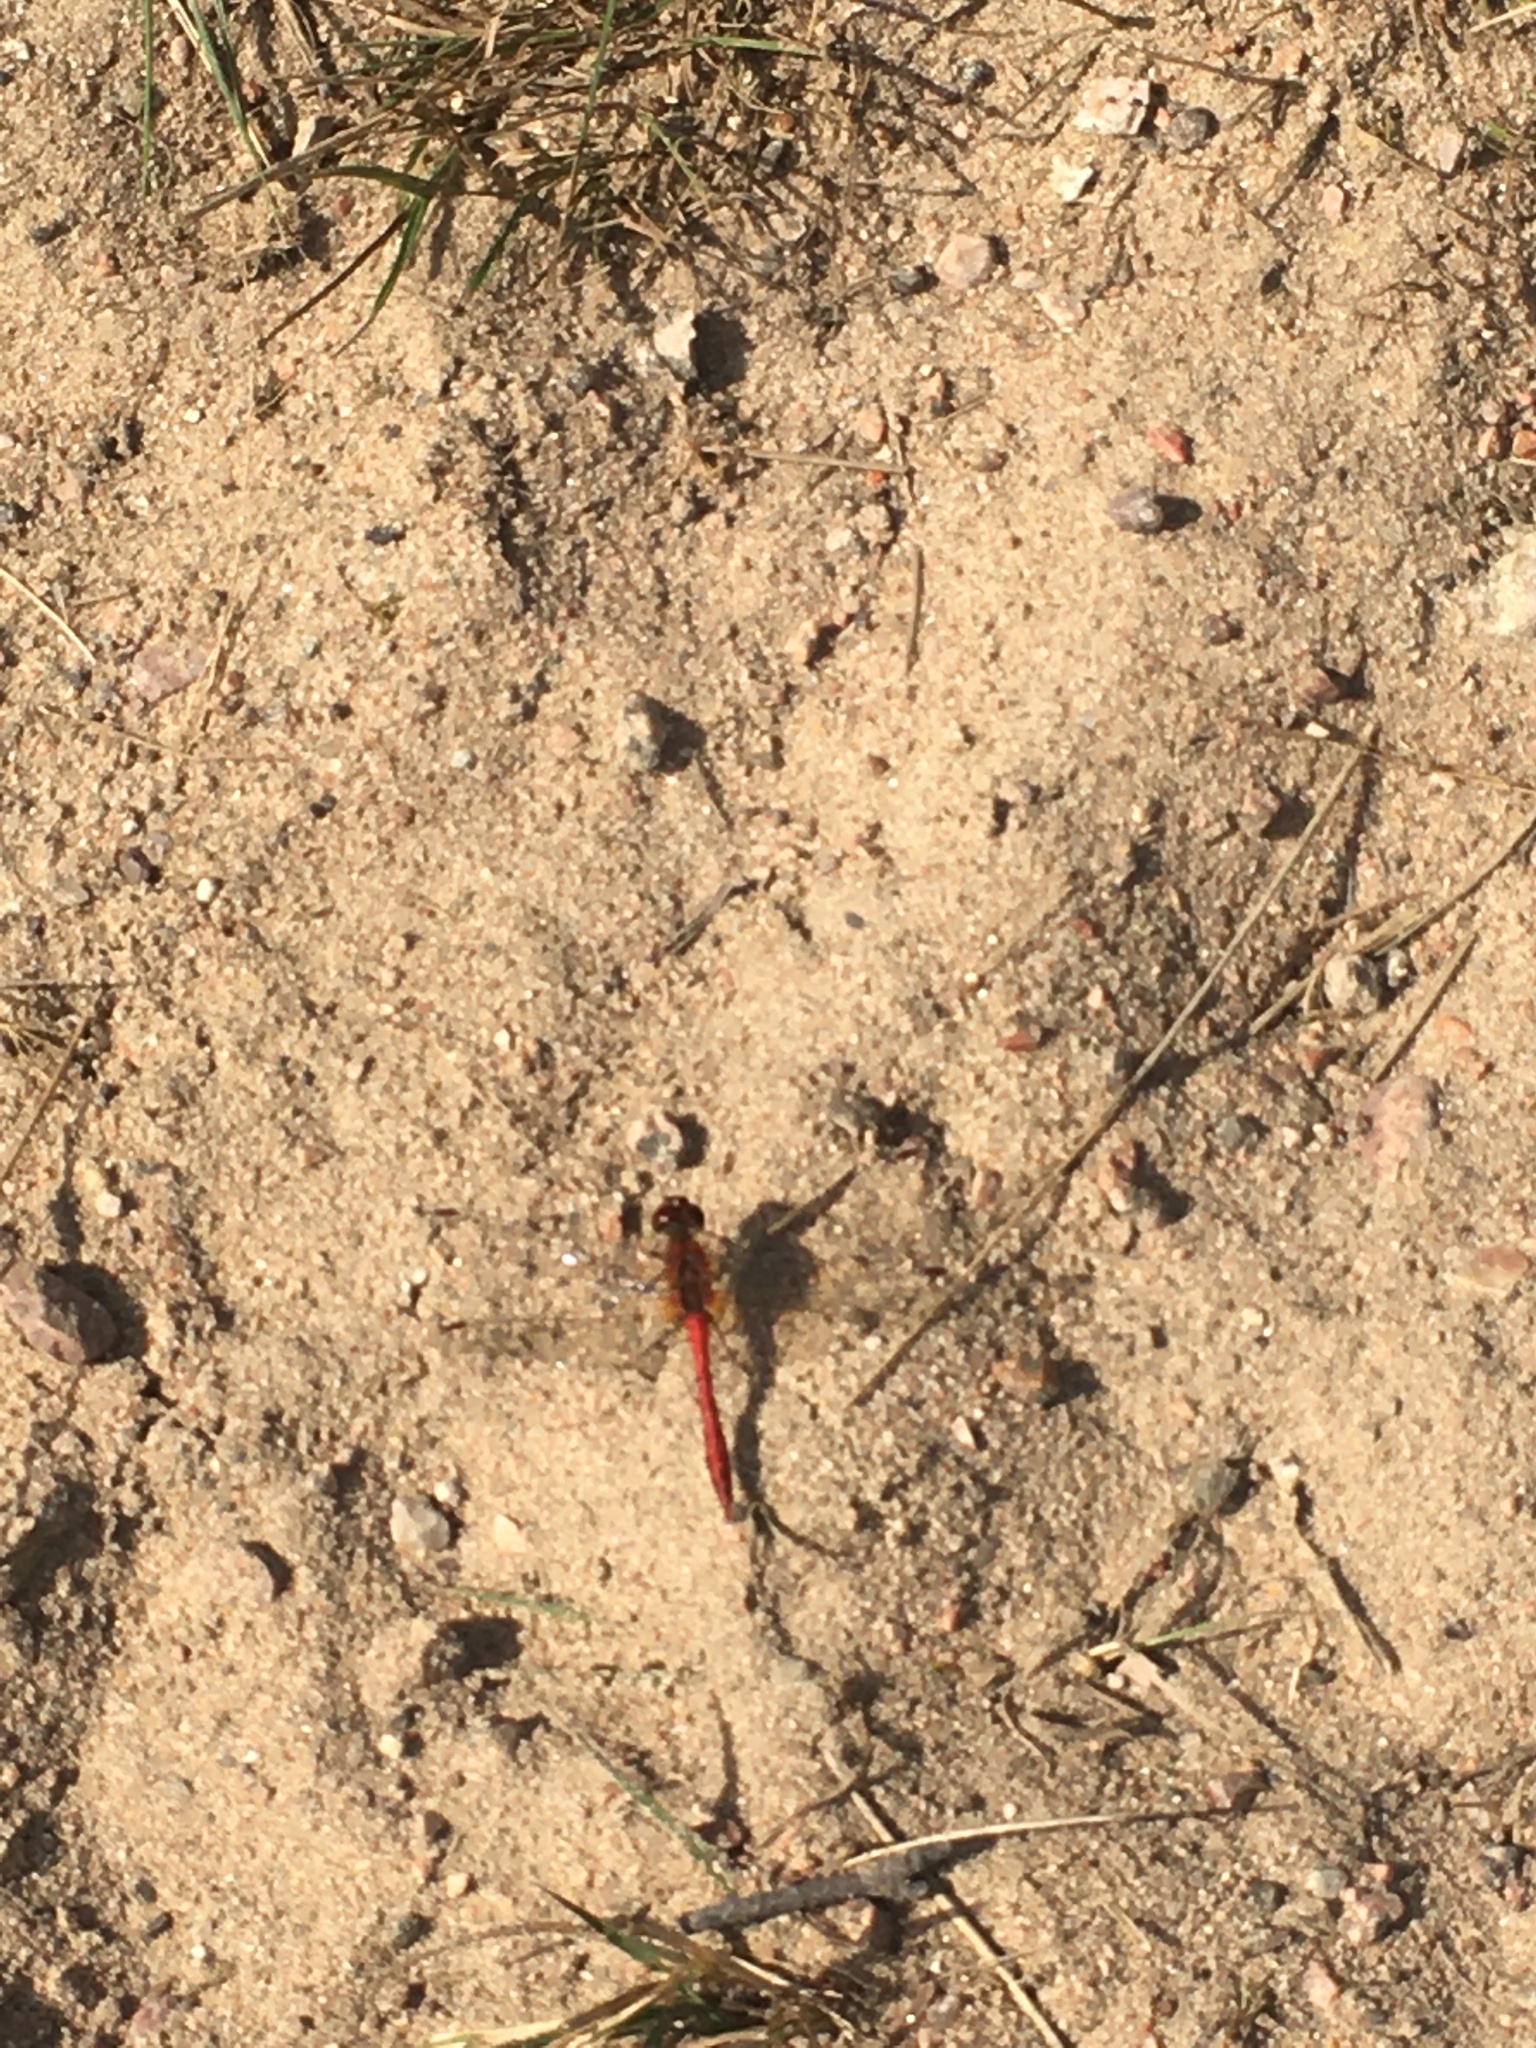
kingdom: Animalia
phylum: Arthropoda
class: Insecta
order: Odonata
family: Libellulidae
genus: Sympetrum
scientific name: Sympetrum sanguineum
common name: Ruddy darter
